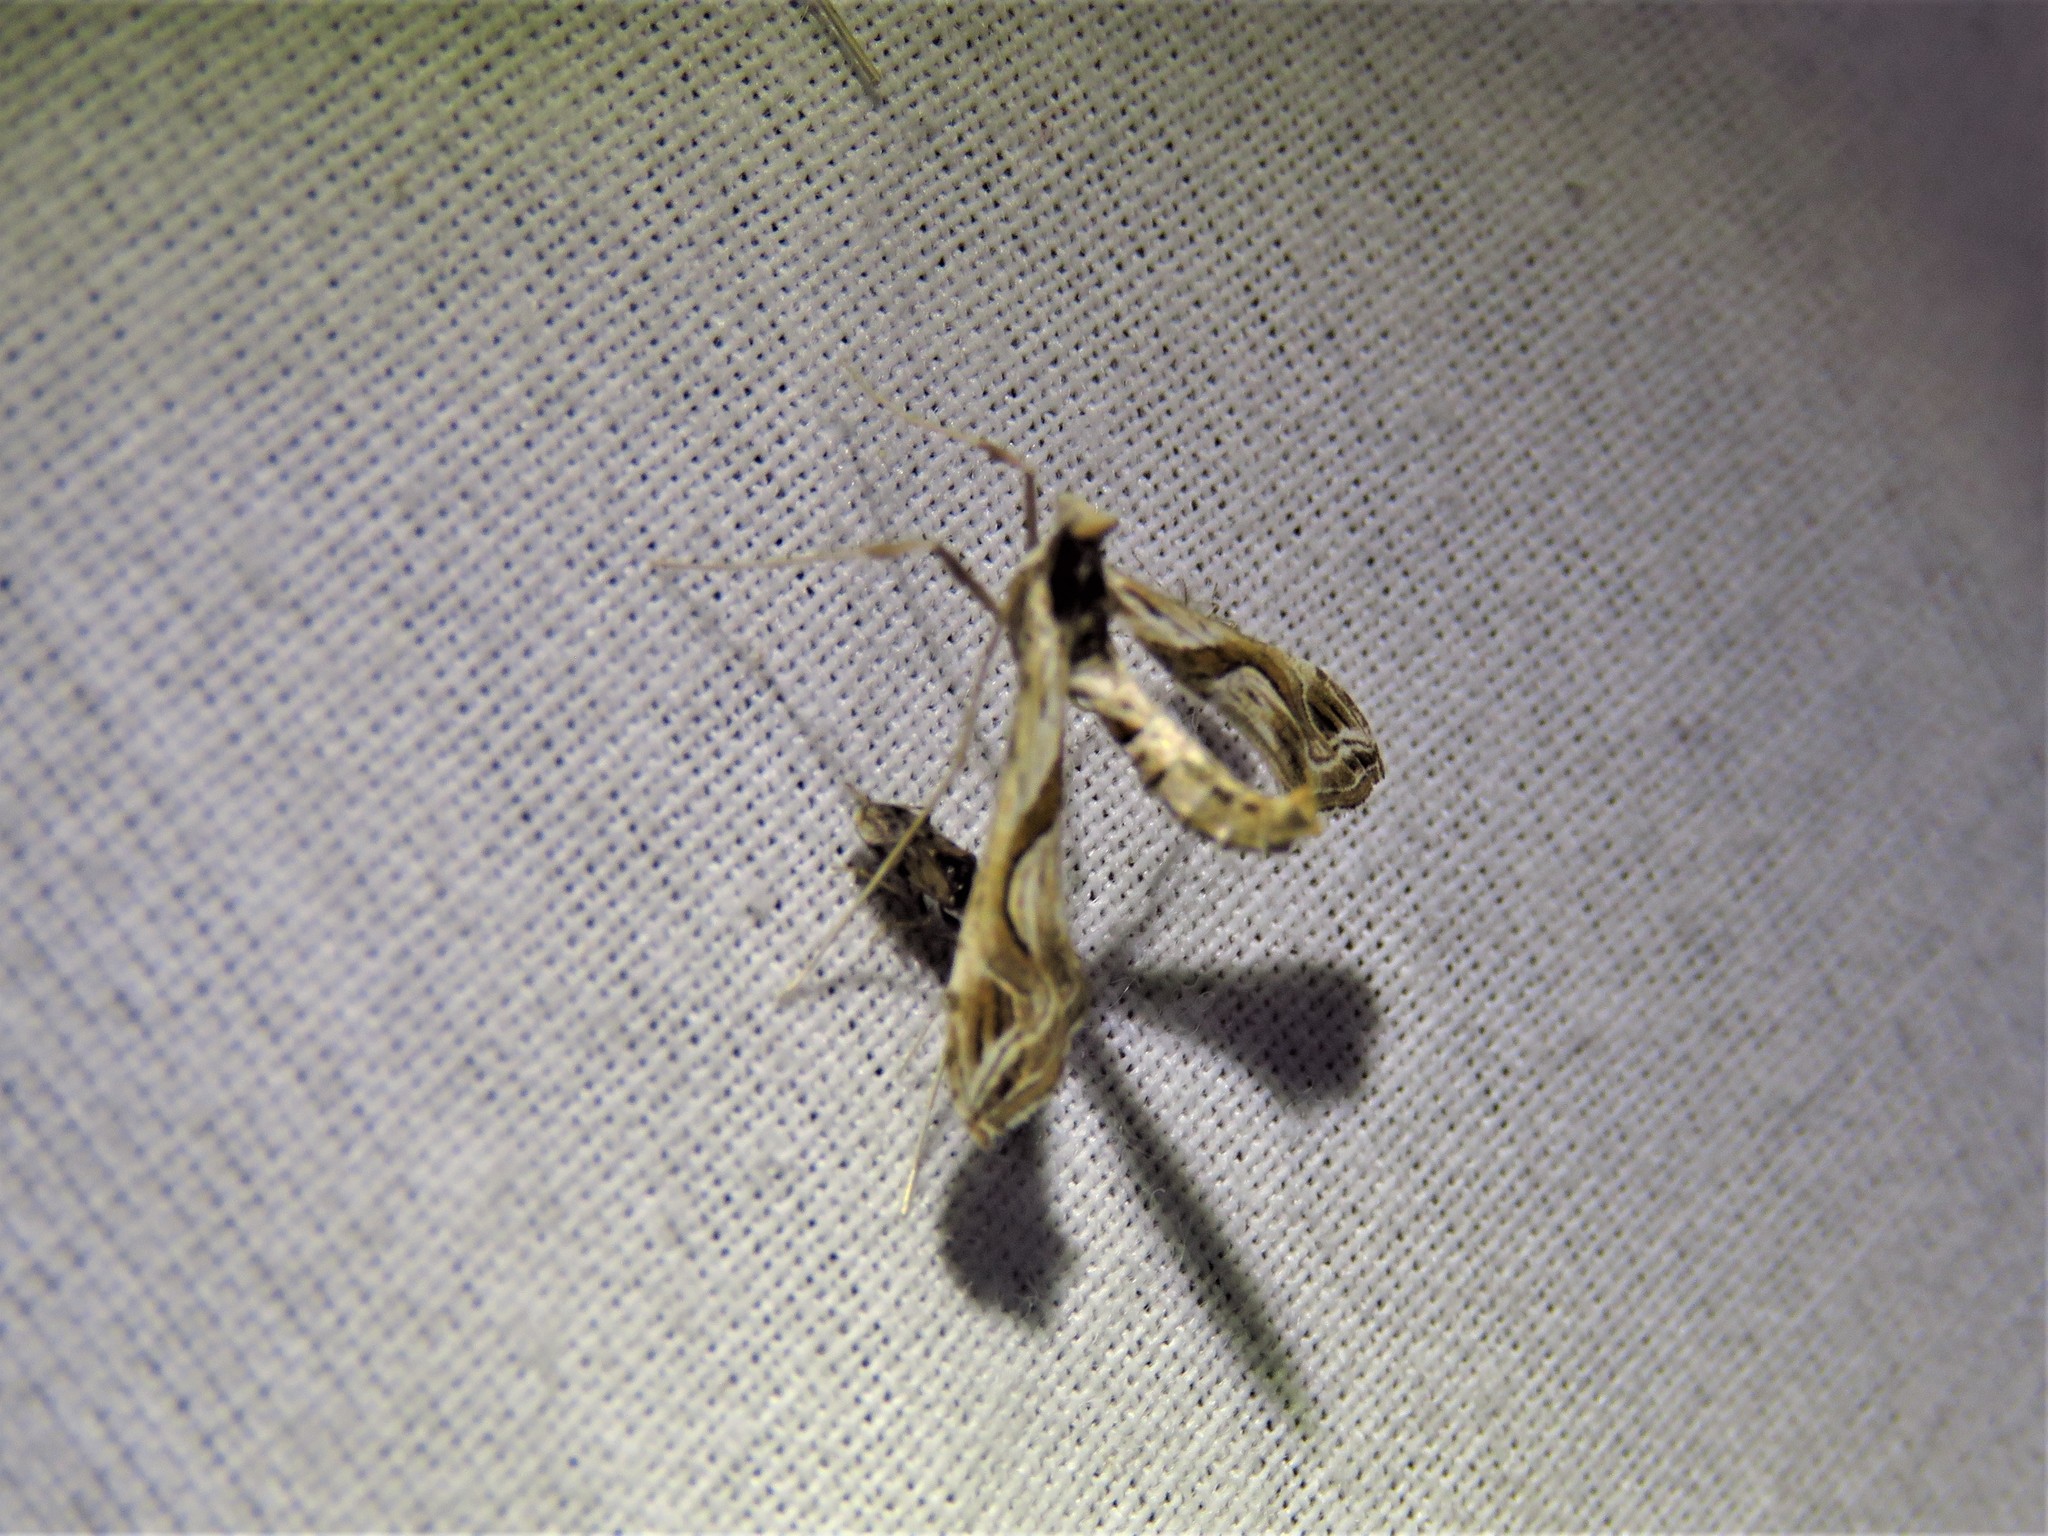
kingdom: Animalia
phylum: Arthropoda
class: Insecta
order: Lepidoptera
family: Crambidae
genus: Lineodes
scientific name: Lineodes integra
